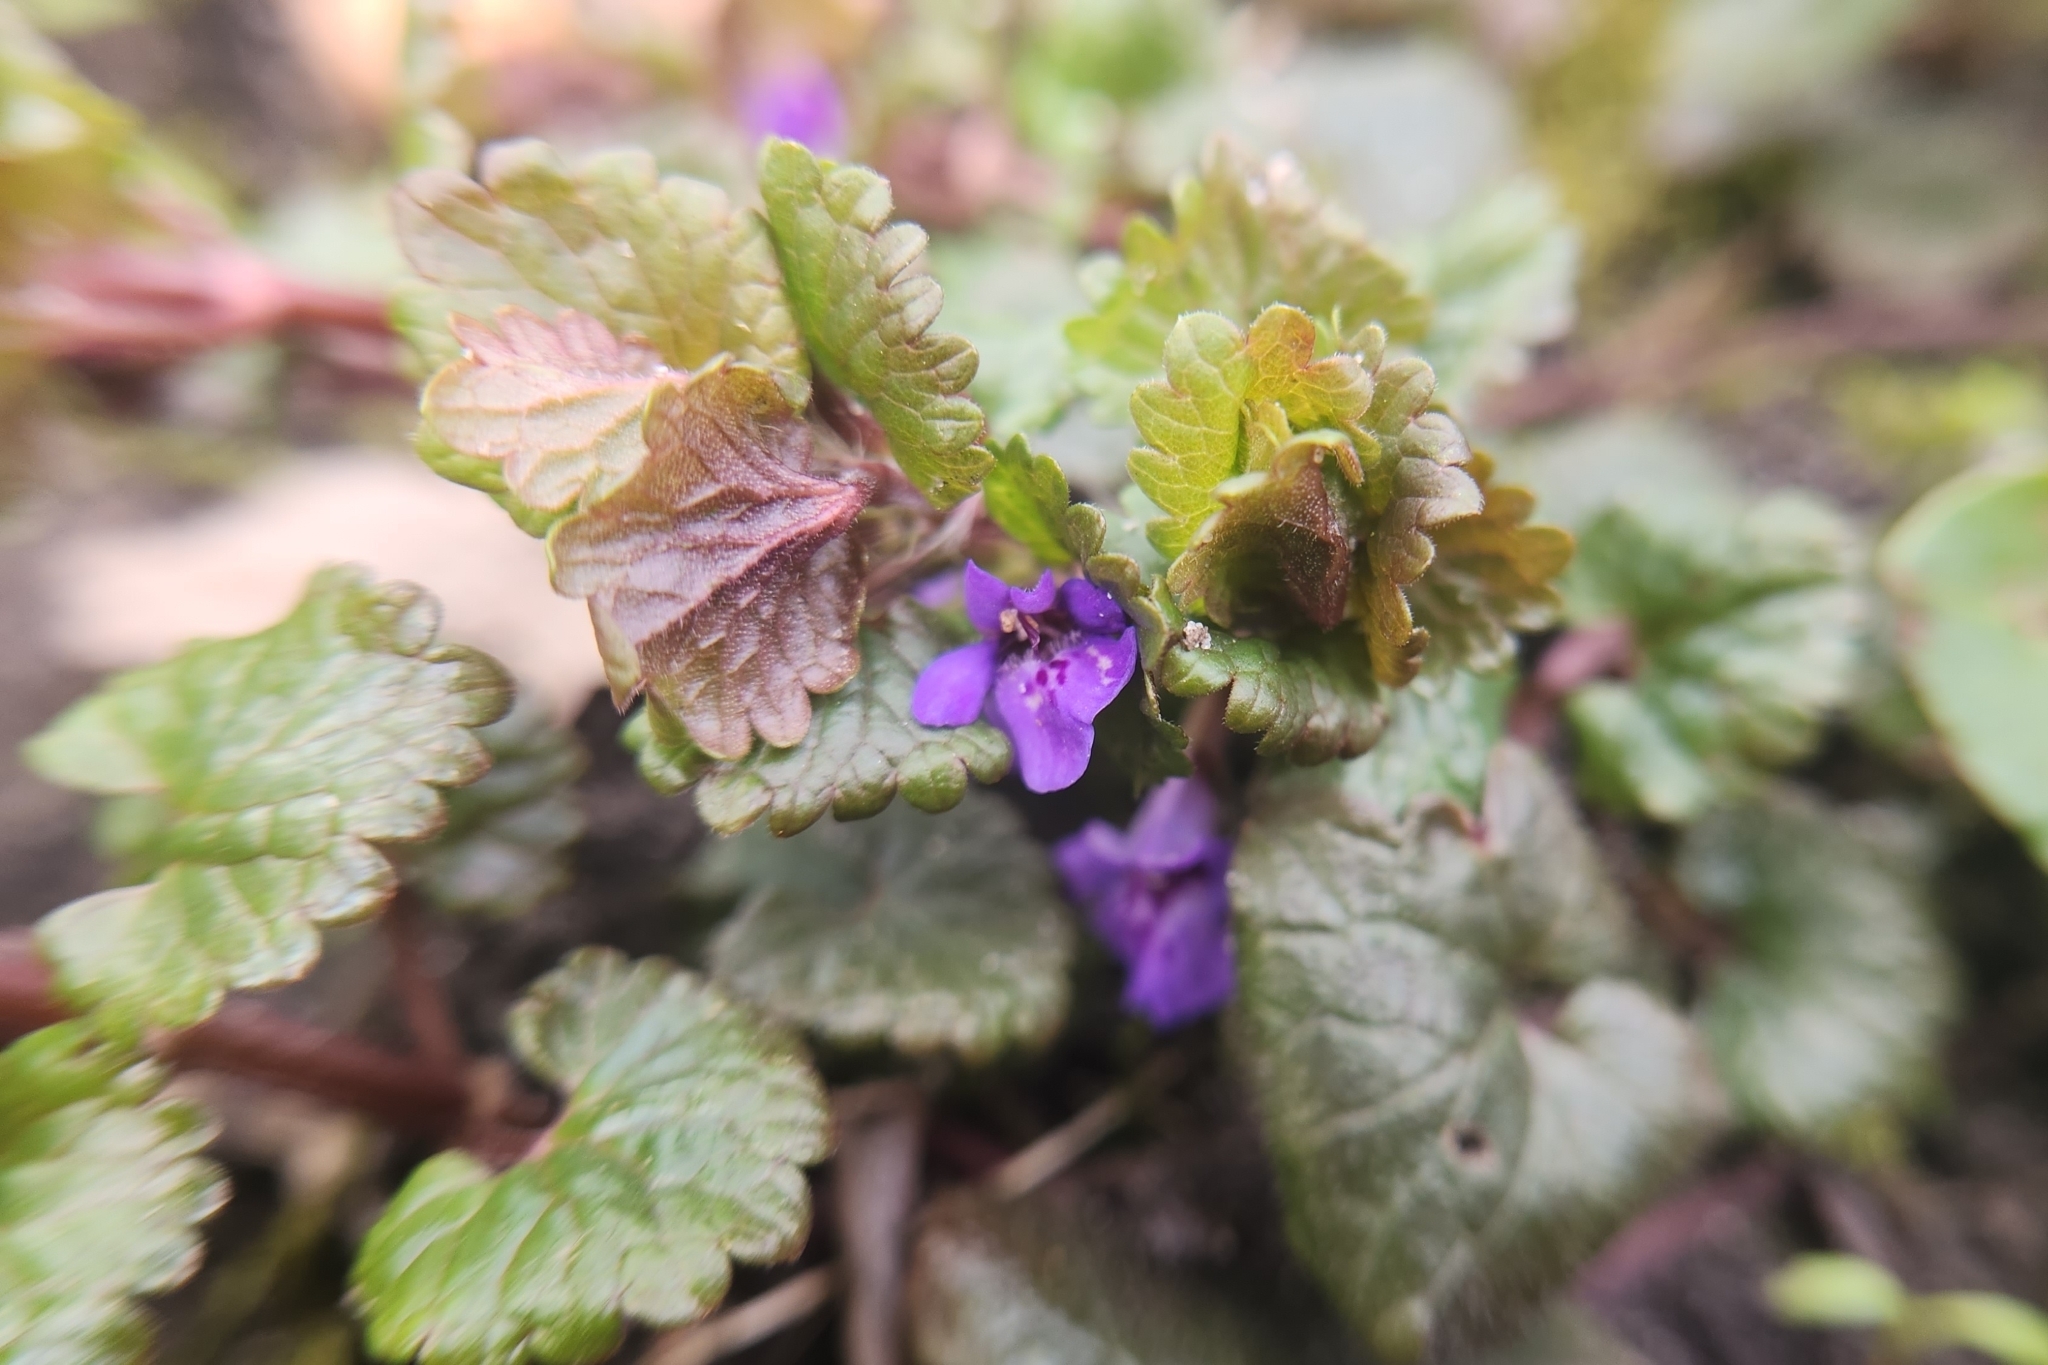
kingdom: Plantae
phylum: Tracheophyta
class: Magnoliopsida
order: Lamiales
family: Lamiaceae
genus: Glechoma
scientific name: Glechoma hederacea
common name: Ground ivy
